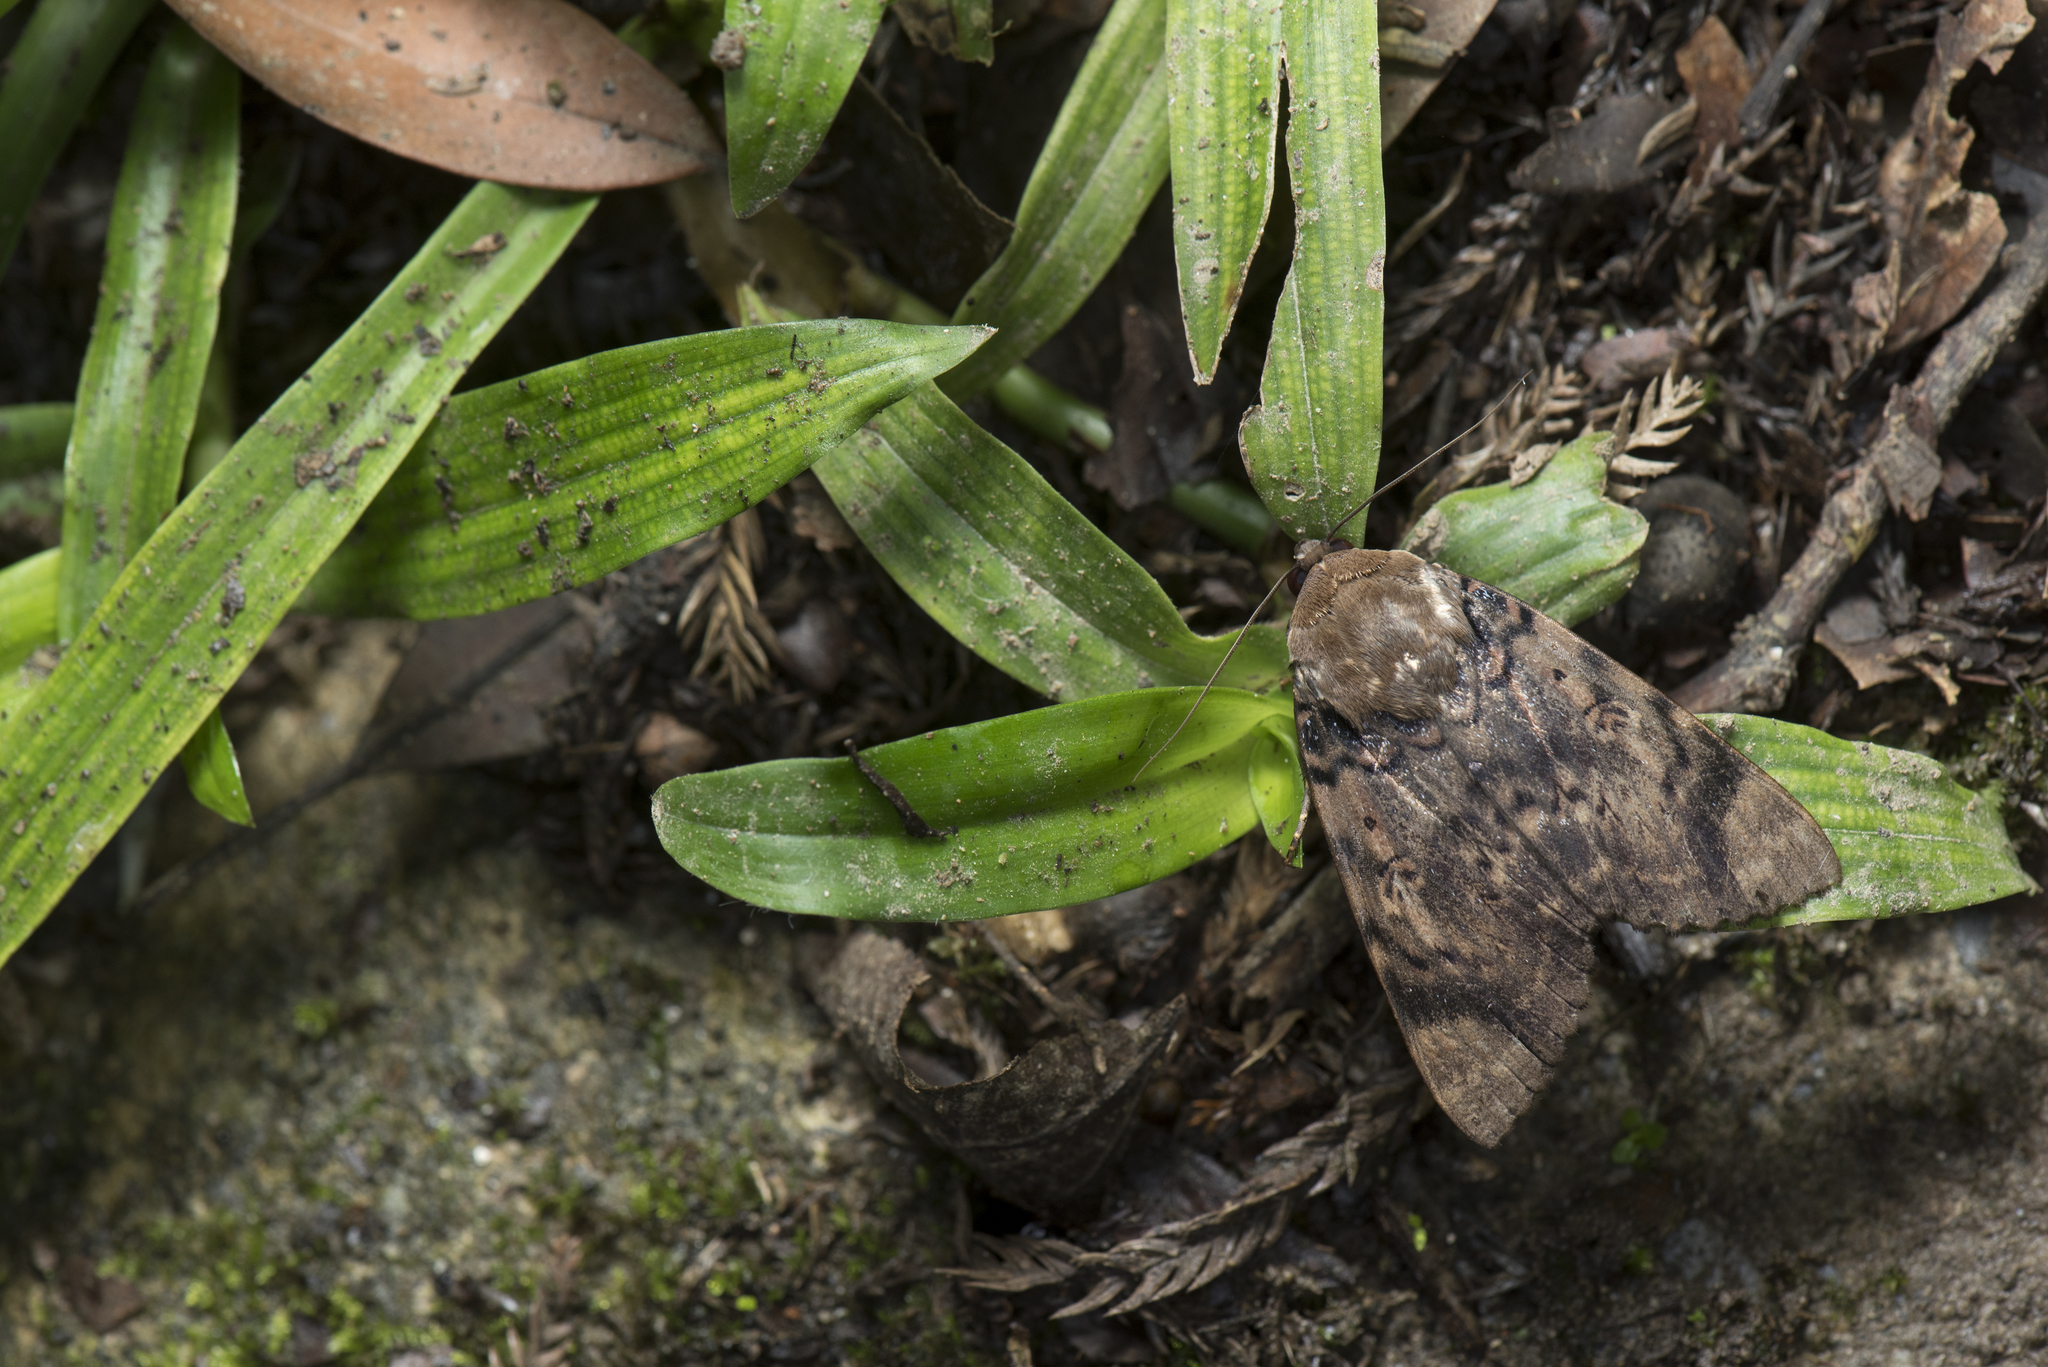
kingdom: Animalia
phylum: Arthropoda
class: Insecta
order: Lepidoptera
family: Erebidae
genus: Arcte
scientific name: Arcte coerula
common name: Ramie moth
